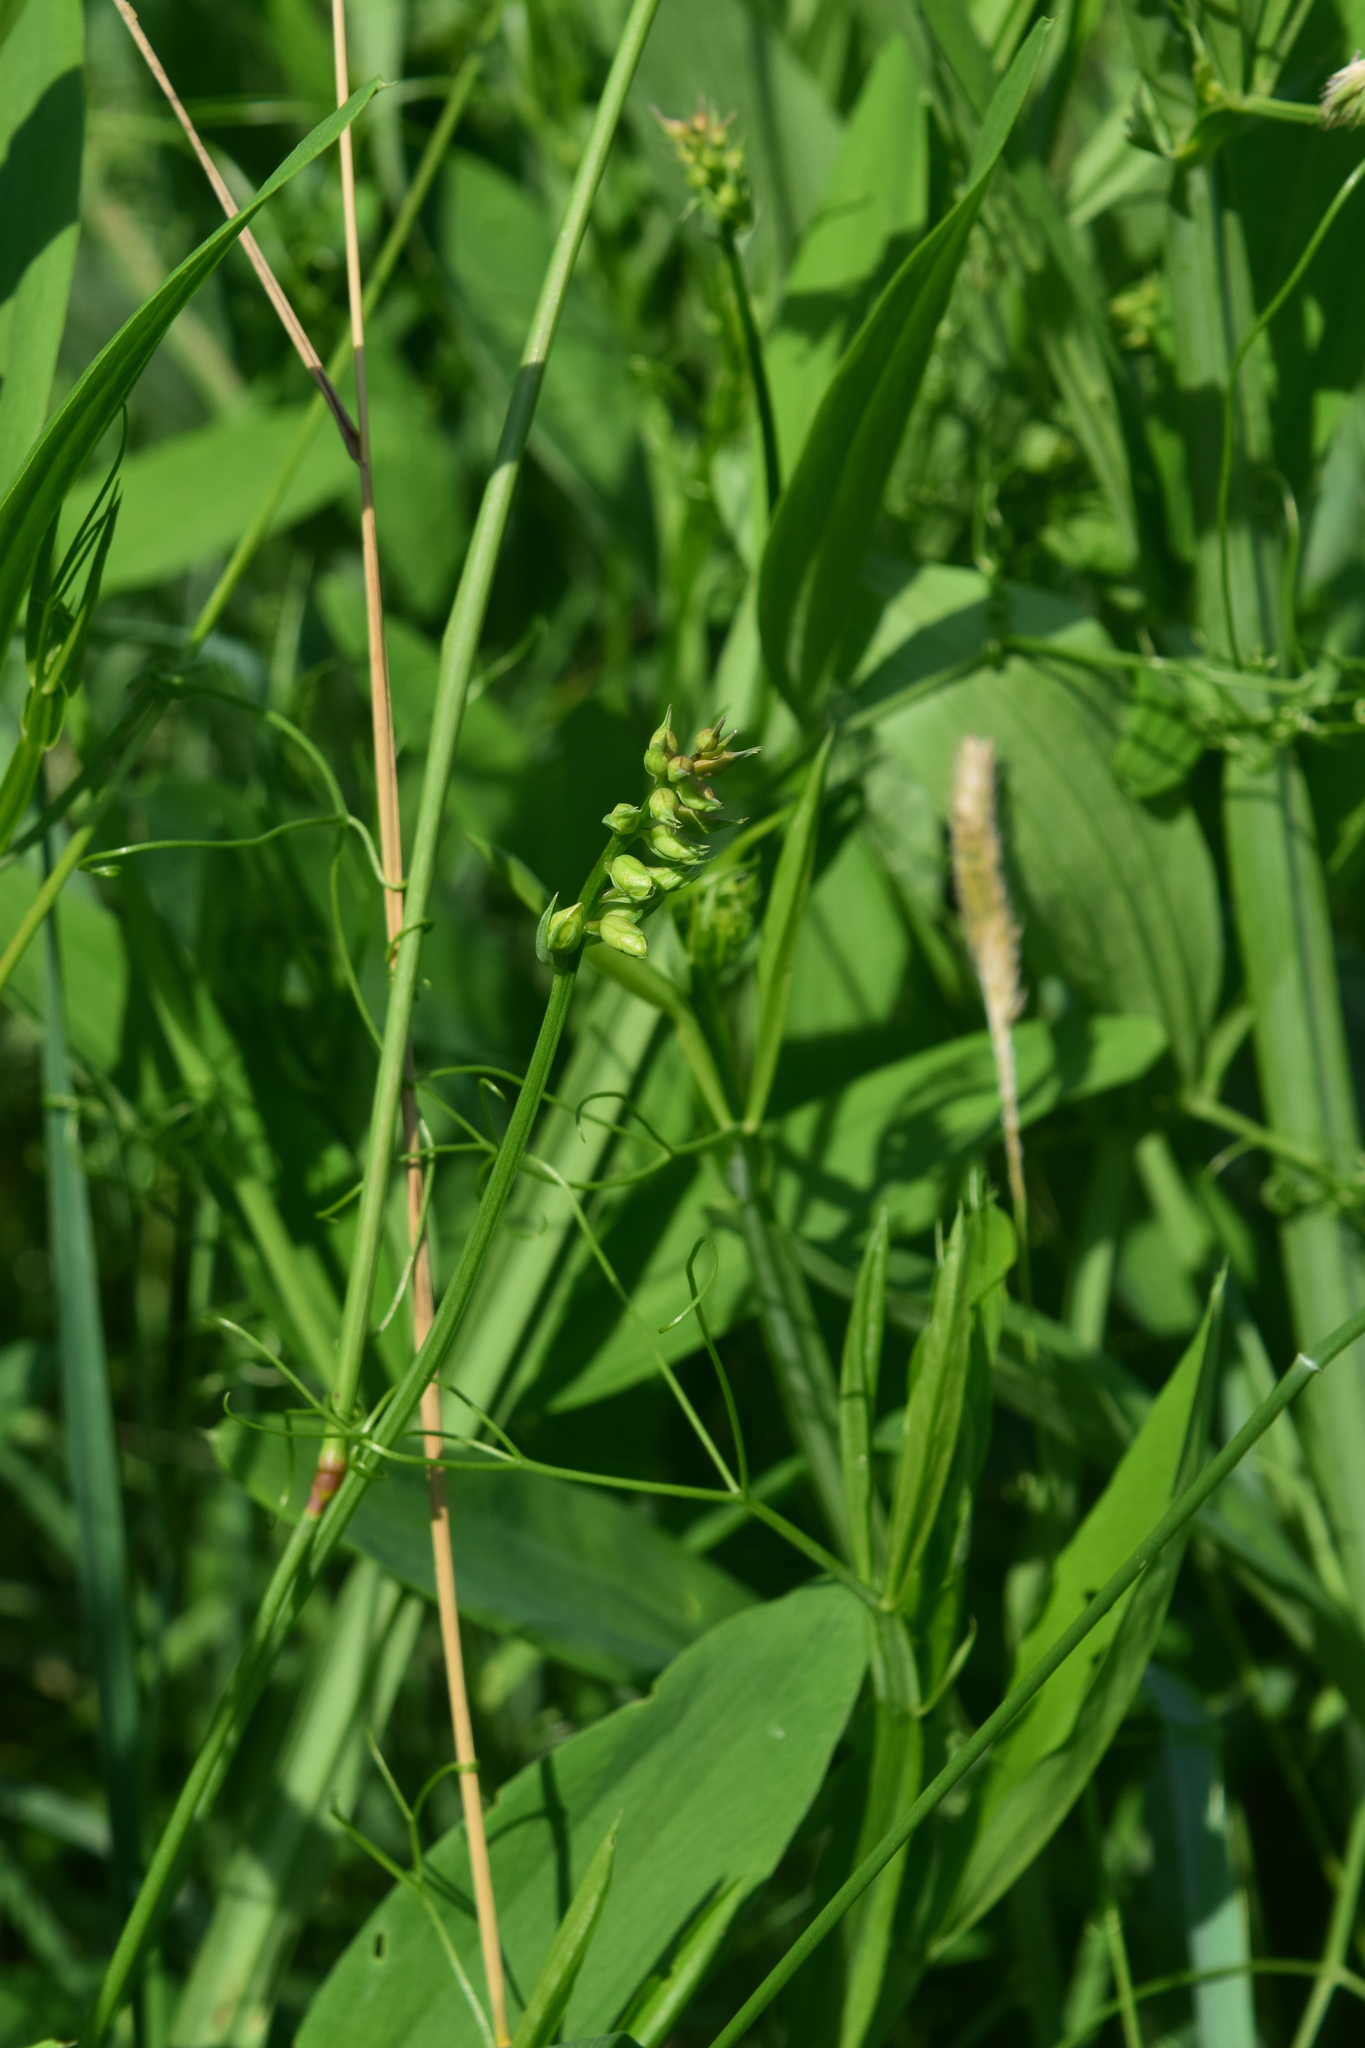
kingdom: Plantae
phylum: Tracheophyta
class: Magnoliopsida
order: Fabales
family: Fabaceae
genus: Lathyrus
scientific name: Lathyrus sylvestris
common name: Flat pea
